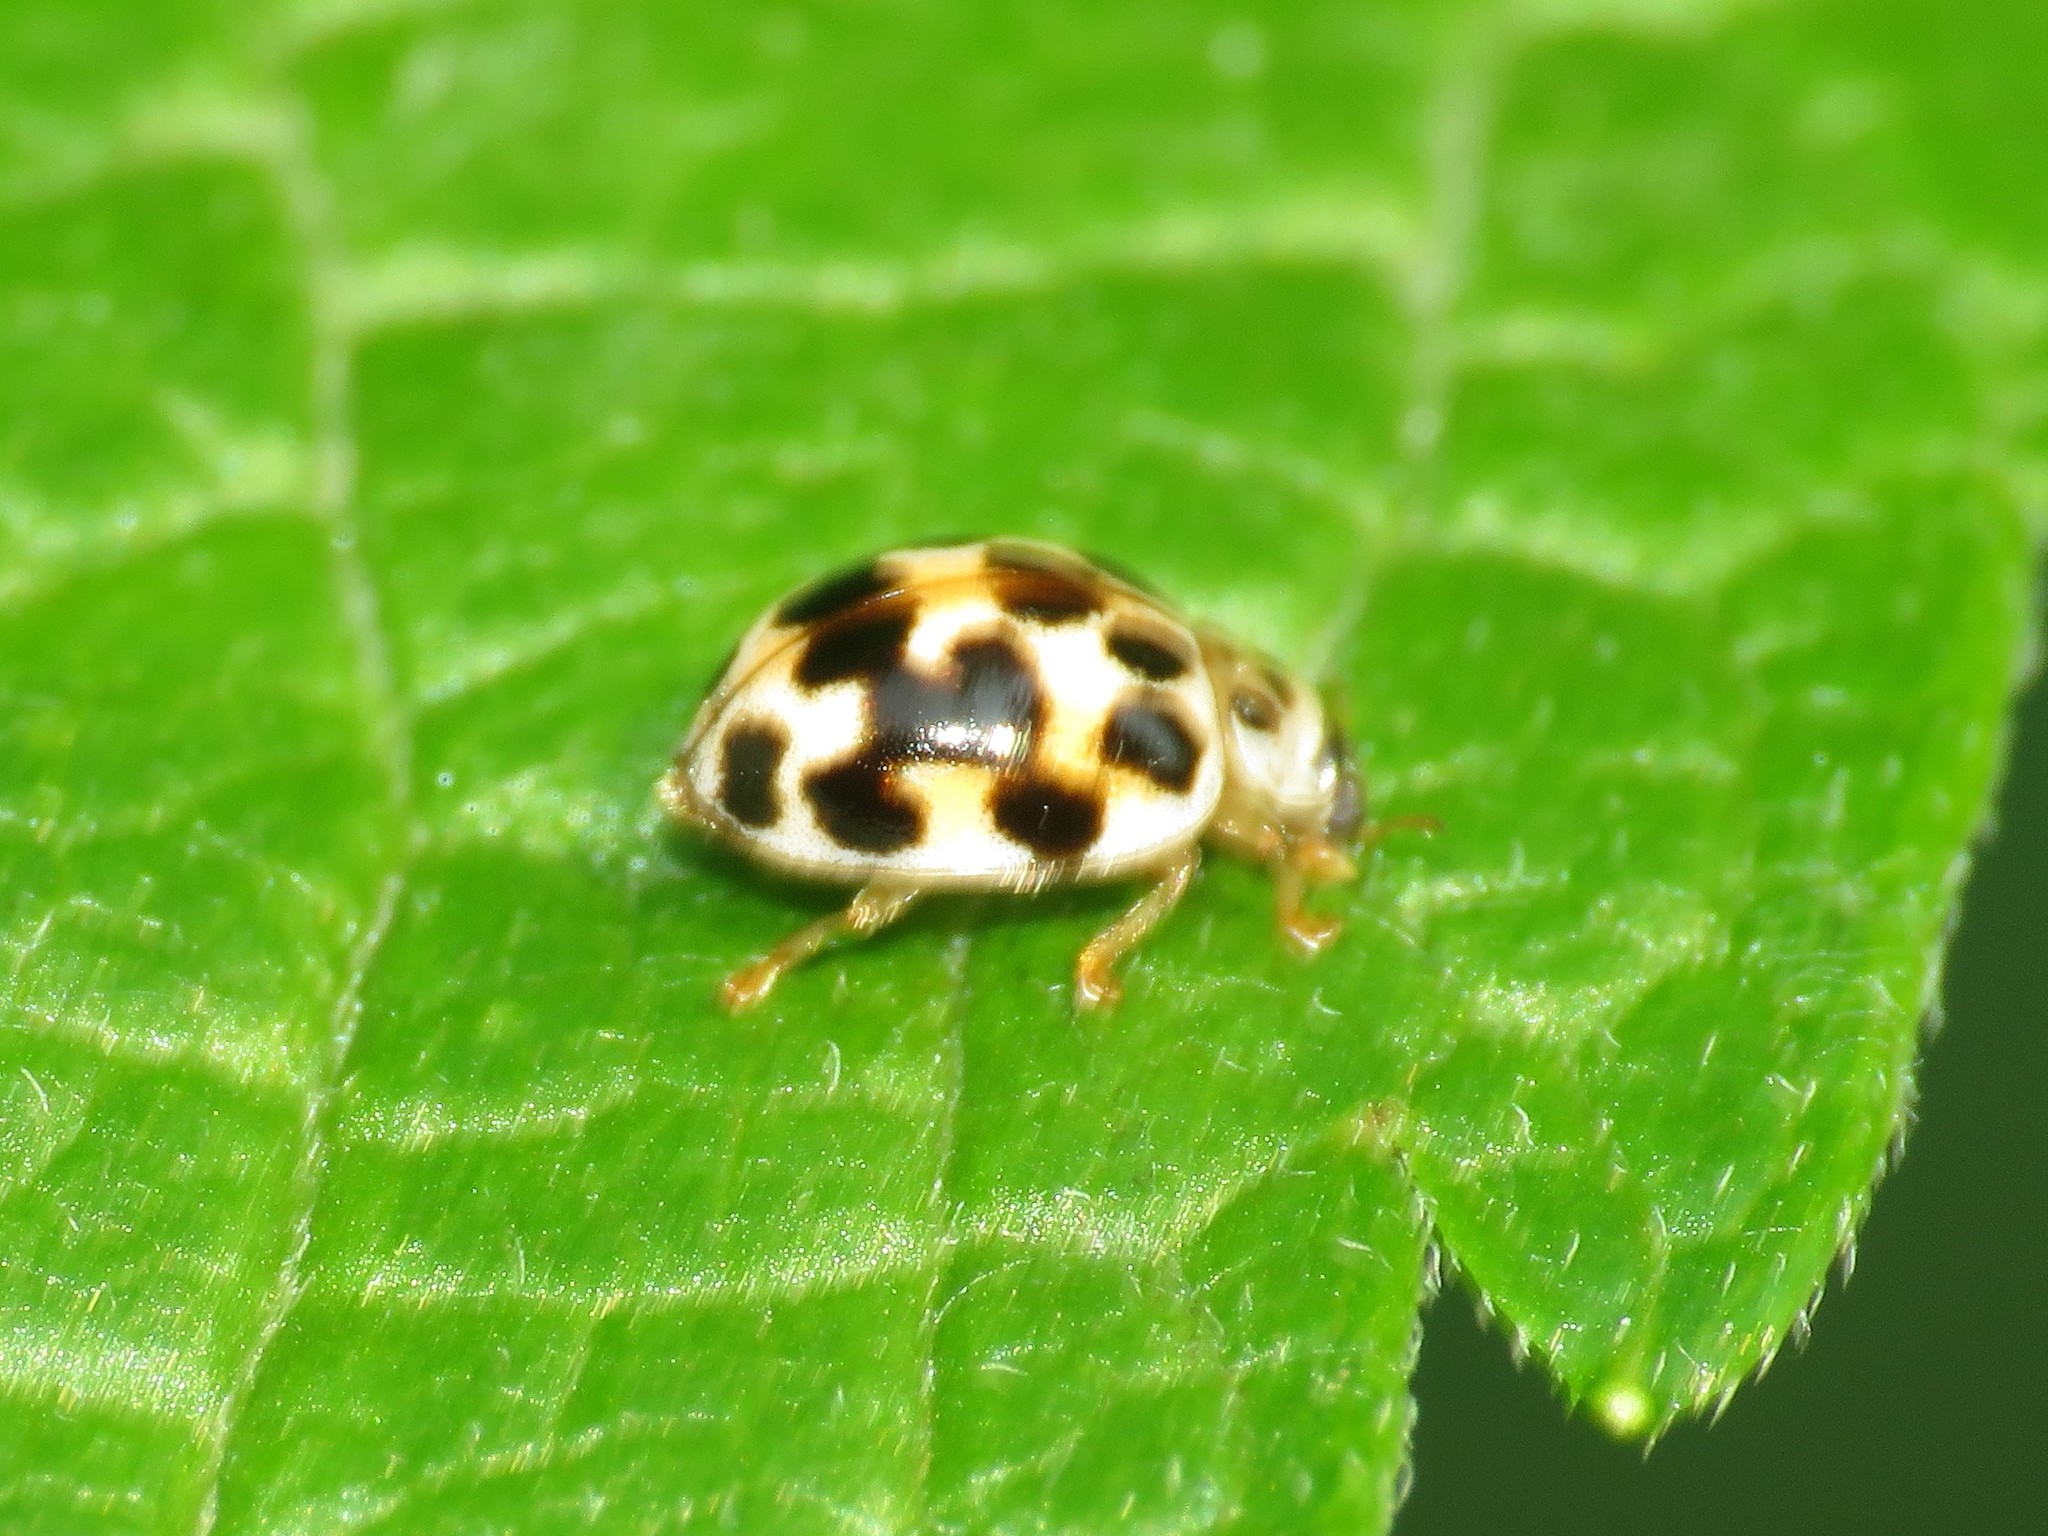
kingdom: Animalia
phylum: Arthropoda
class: Insecta
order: Coleoptera
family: Coccinellidae
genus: Psyllobora
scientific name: Psyllobora vigintimaculata
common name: Ladybird beetle
